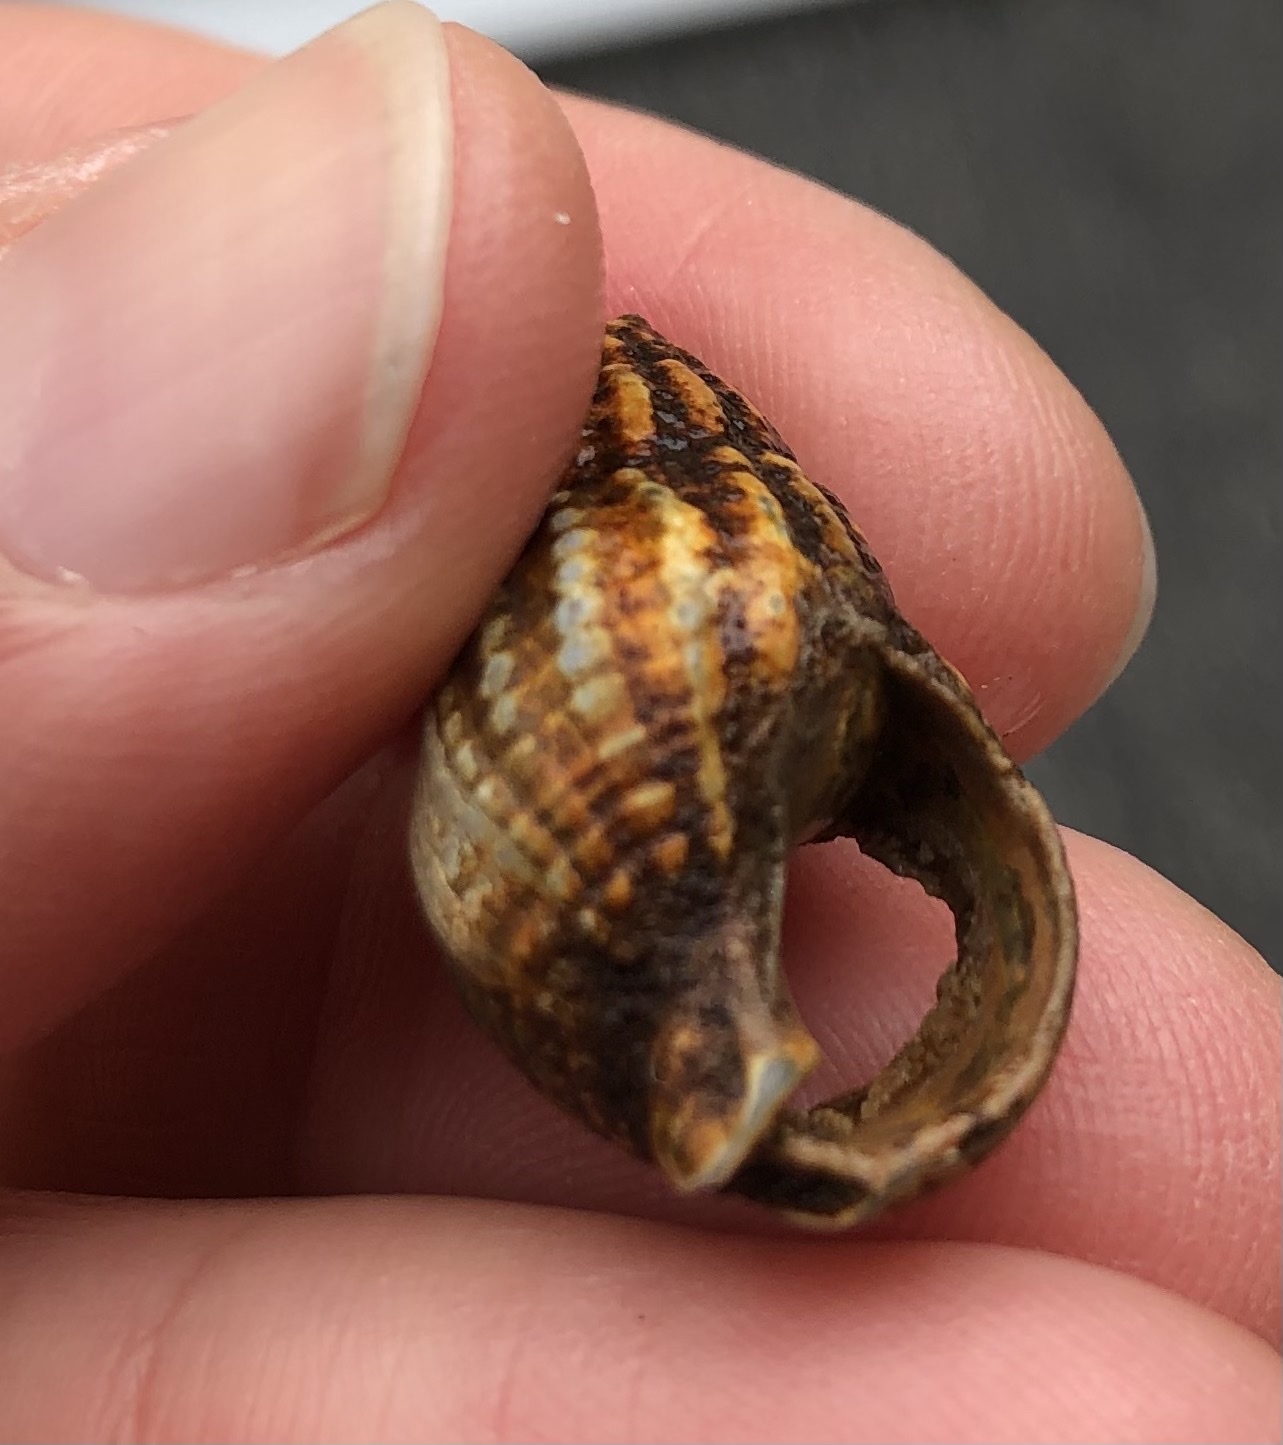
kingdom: Animalia
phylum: Mollusca
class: Gastropoda
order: Neogastropoda
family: Nassariidae
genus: Tritia
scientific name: Tritia reticulata
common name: Netted dog whelk
